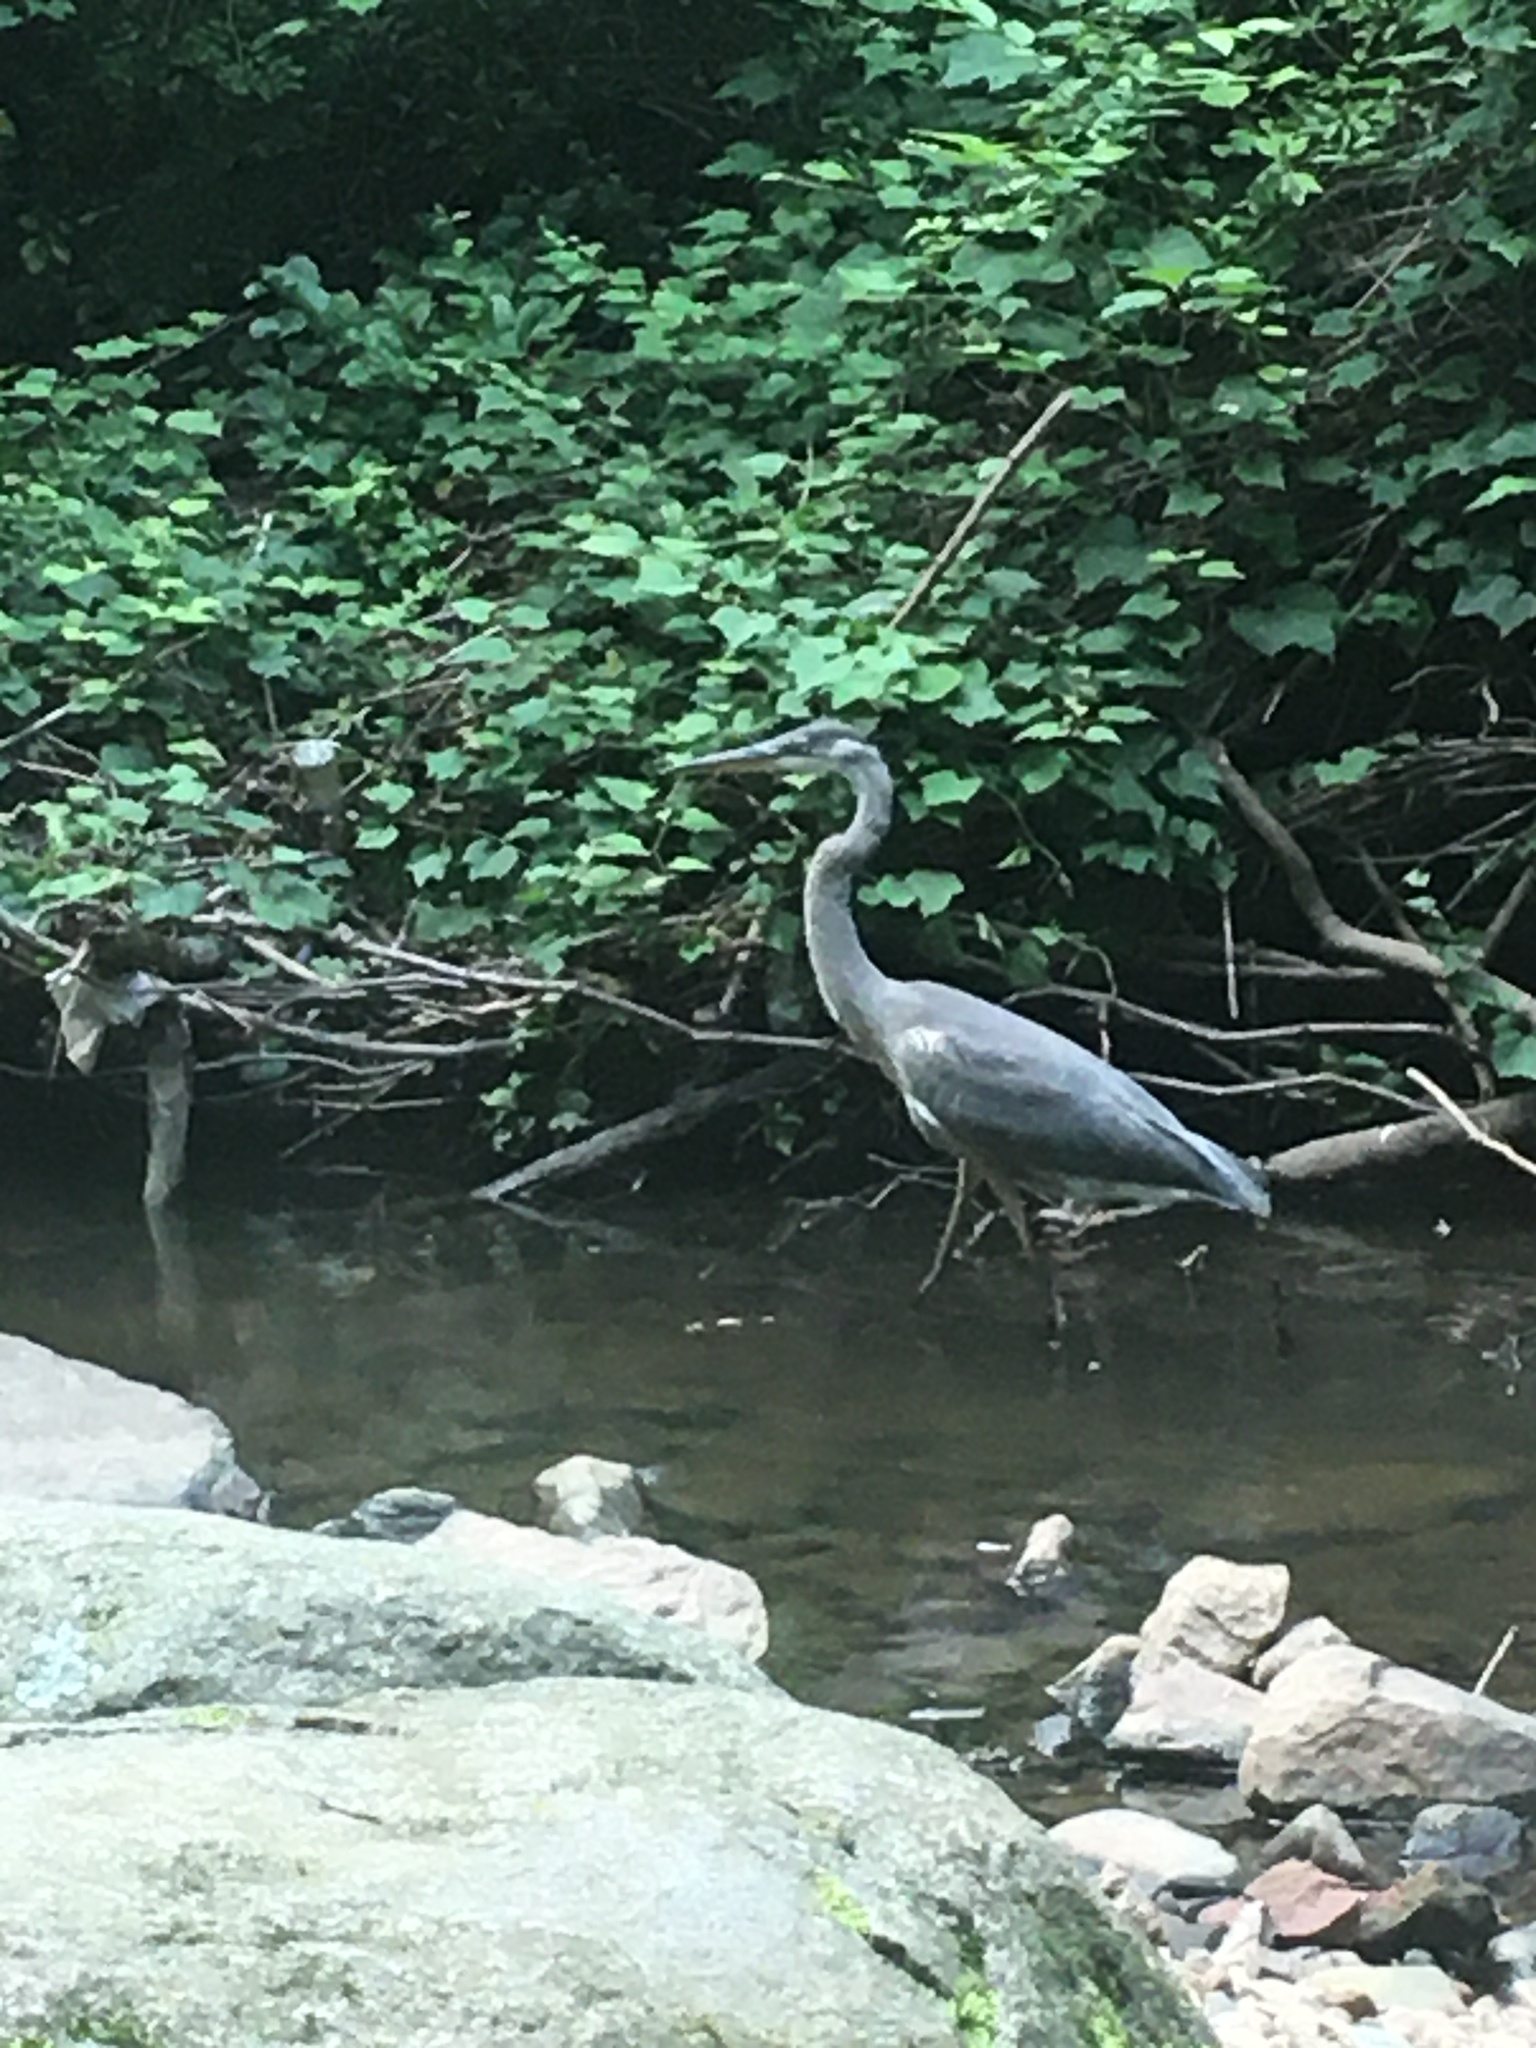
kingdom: Animalia
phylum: Chordata
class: Aves
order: Pelecaniformes
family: Ardeidae
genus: Ardea
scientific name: Ardea herodias
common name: Great blue heron
